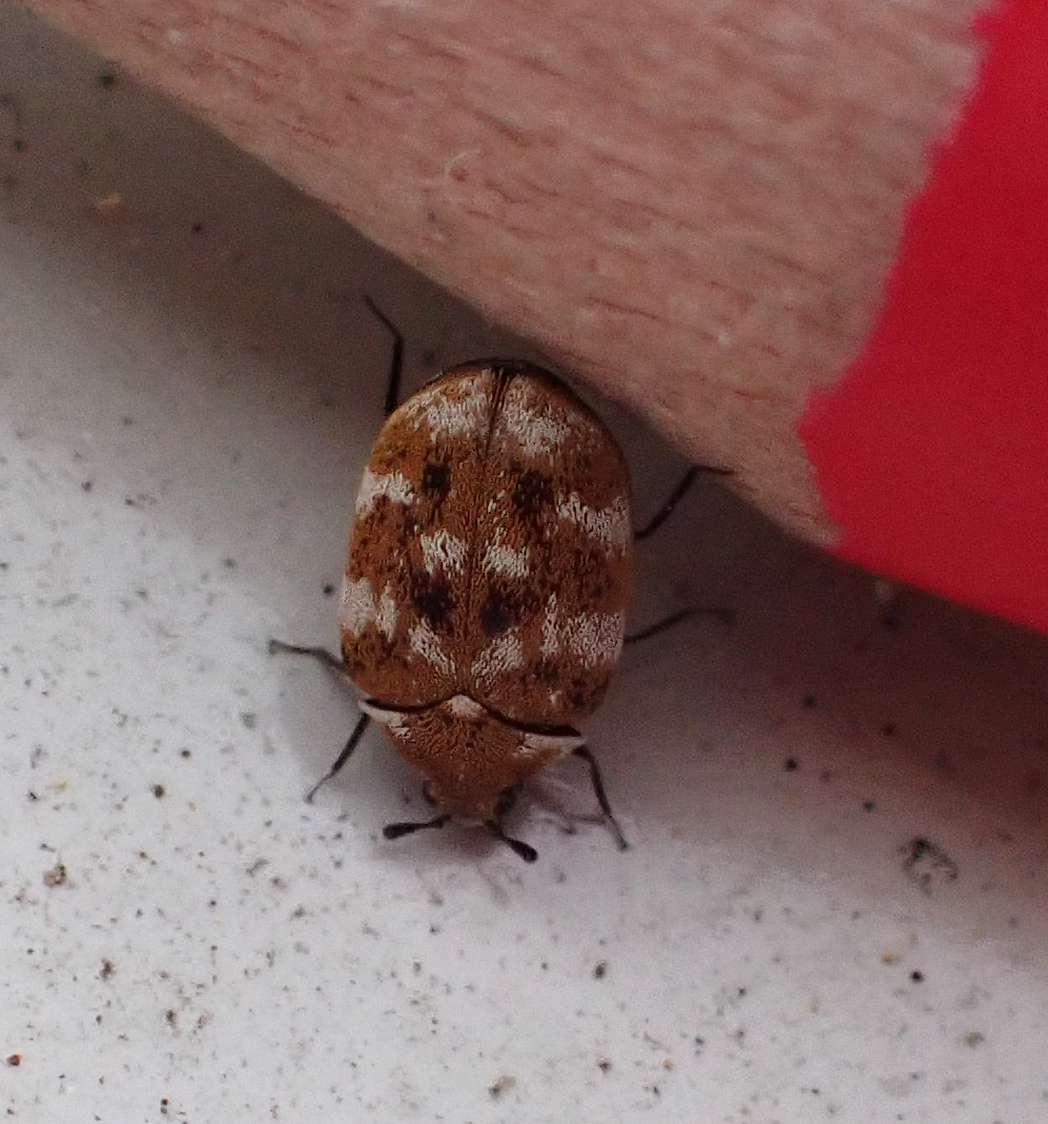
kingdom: Animalia
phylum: Arthropoda
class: Insecta
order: Coleoptera
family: Dermestidae
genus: Anthrenus
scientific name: Anthrenus verbasci
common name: Varied carpet beetle
